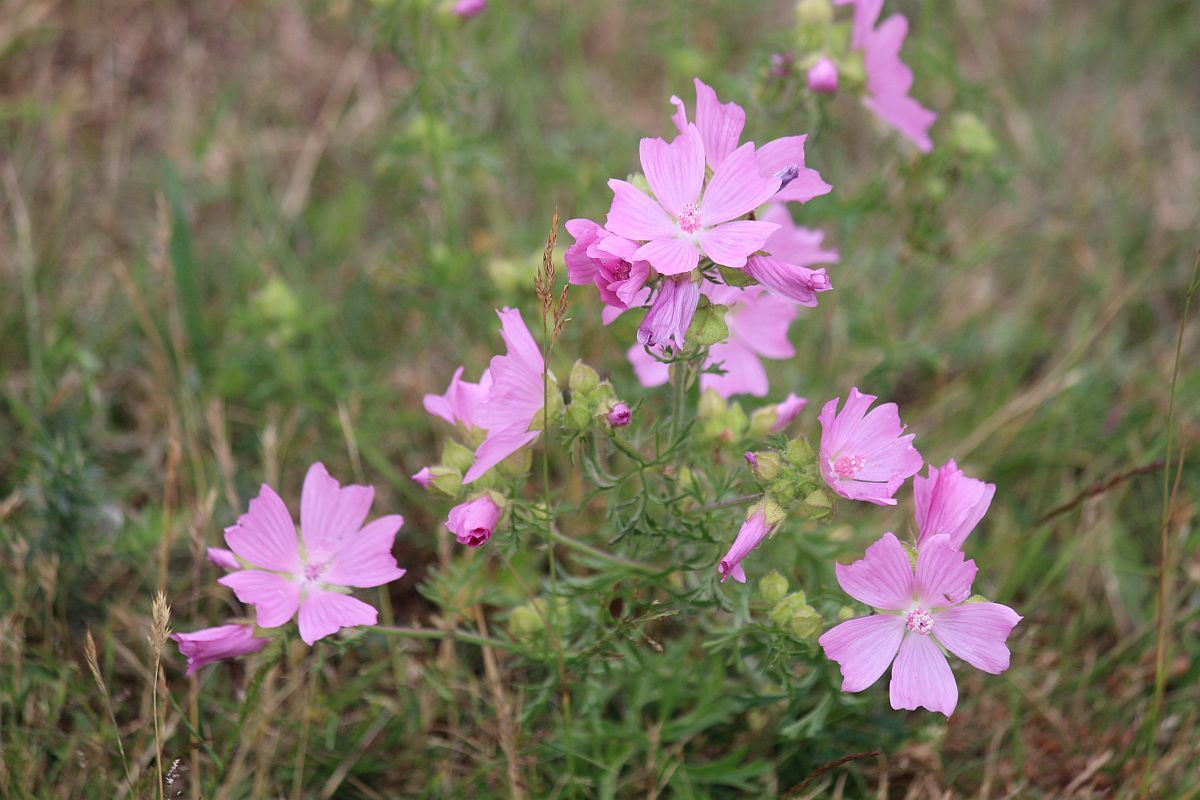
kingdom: Plantae
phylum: Tracheophyta
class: Magnoliopsida
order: Malvales
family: Malvaceae
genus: Malva
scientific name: Malva moschata
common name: Musk mallow
